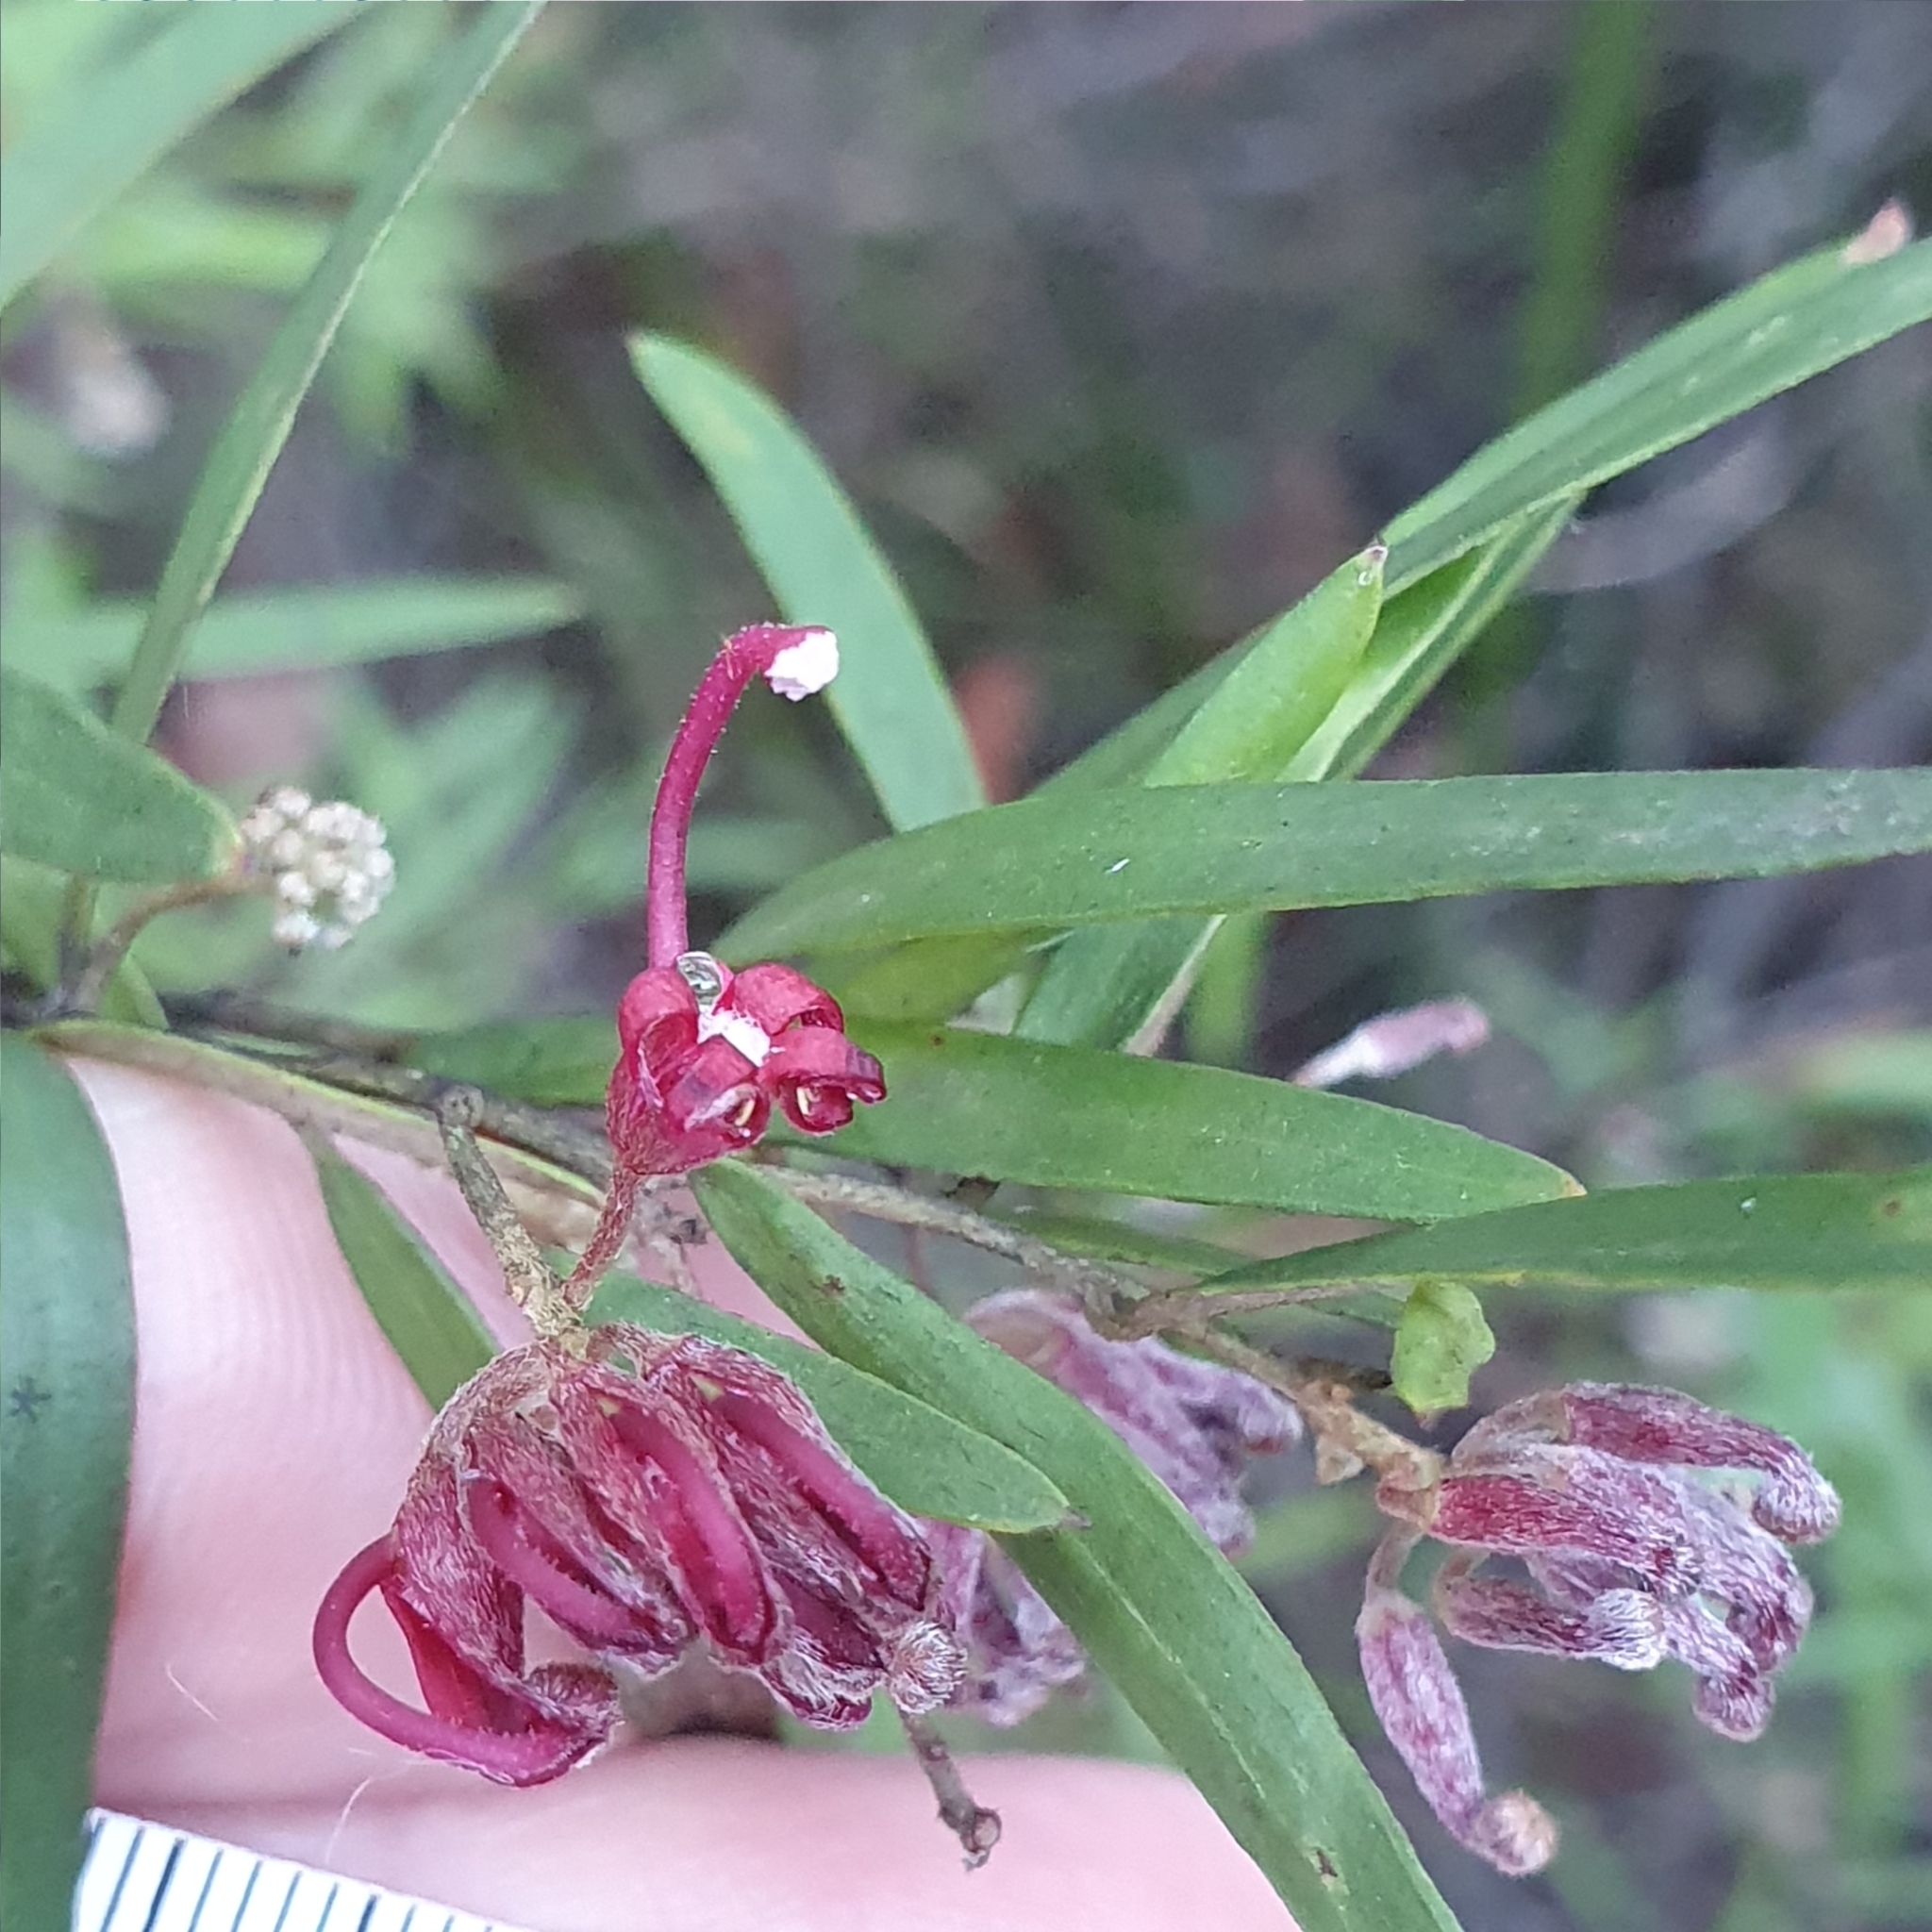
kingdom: Plantae
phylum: Tracheophyta
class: Magnoliopsida
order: Proteales
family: Proteaceae
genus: Grevillea
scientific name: Grevillea diffusa
